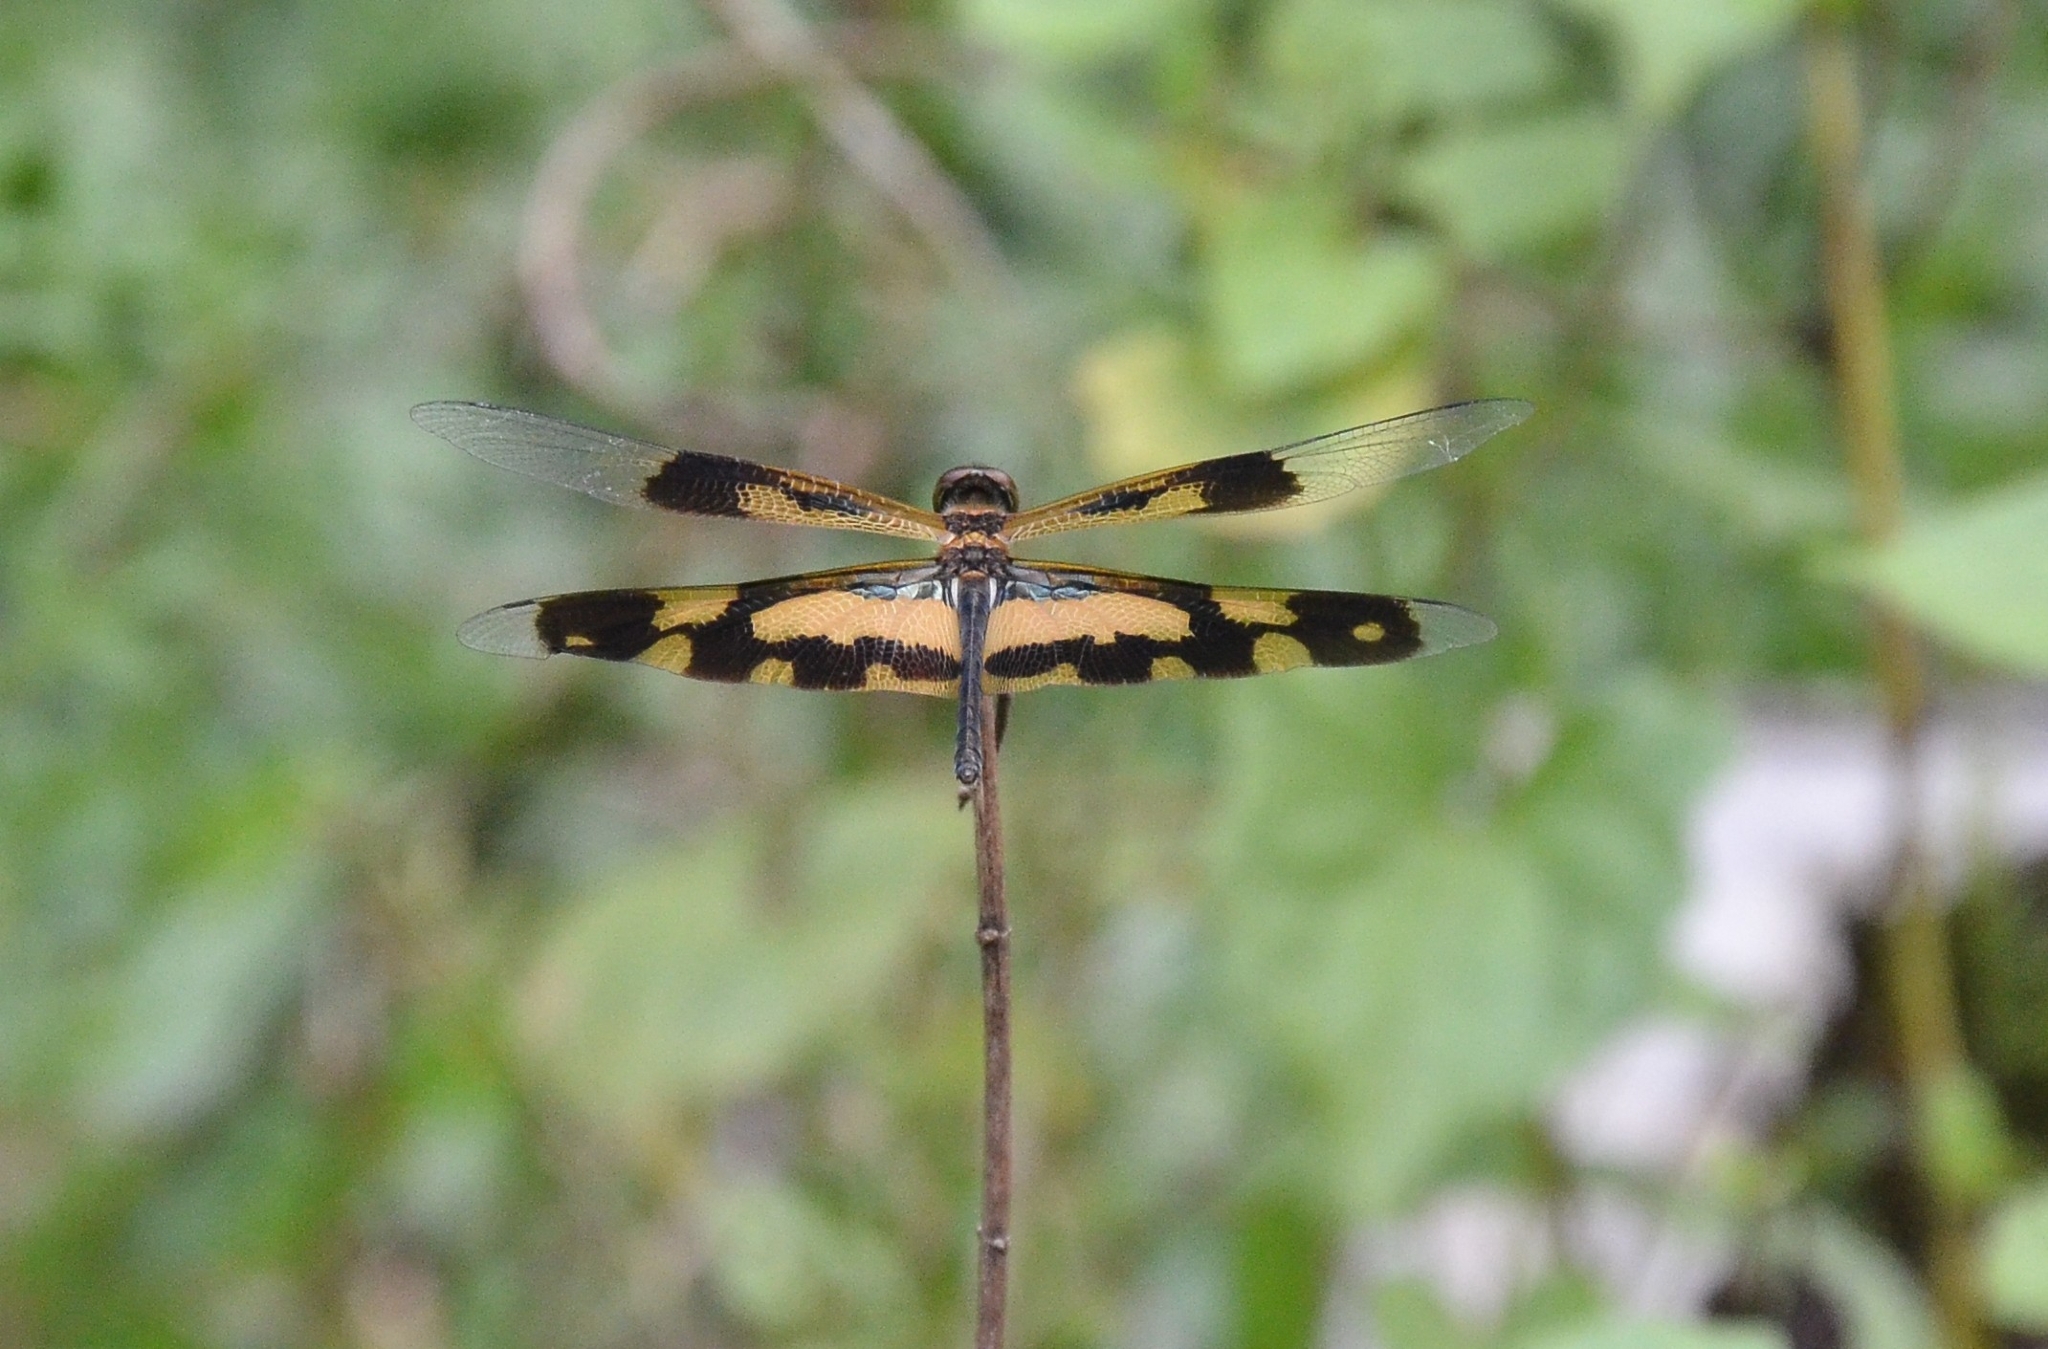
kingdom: Animalia
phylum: Arthropoda
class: Insecta
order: Odonata
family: Libellulidae
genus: Rhyothemis
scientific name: Rhyothemis variegata
